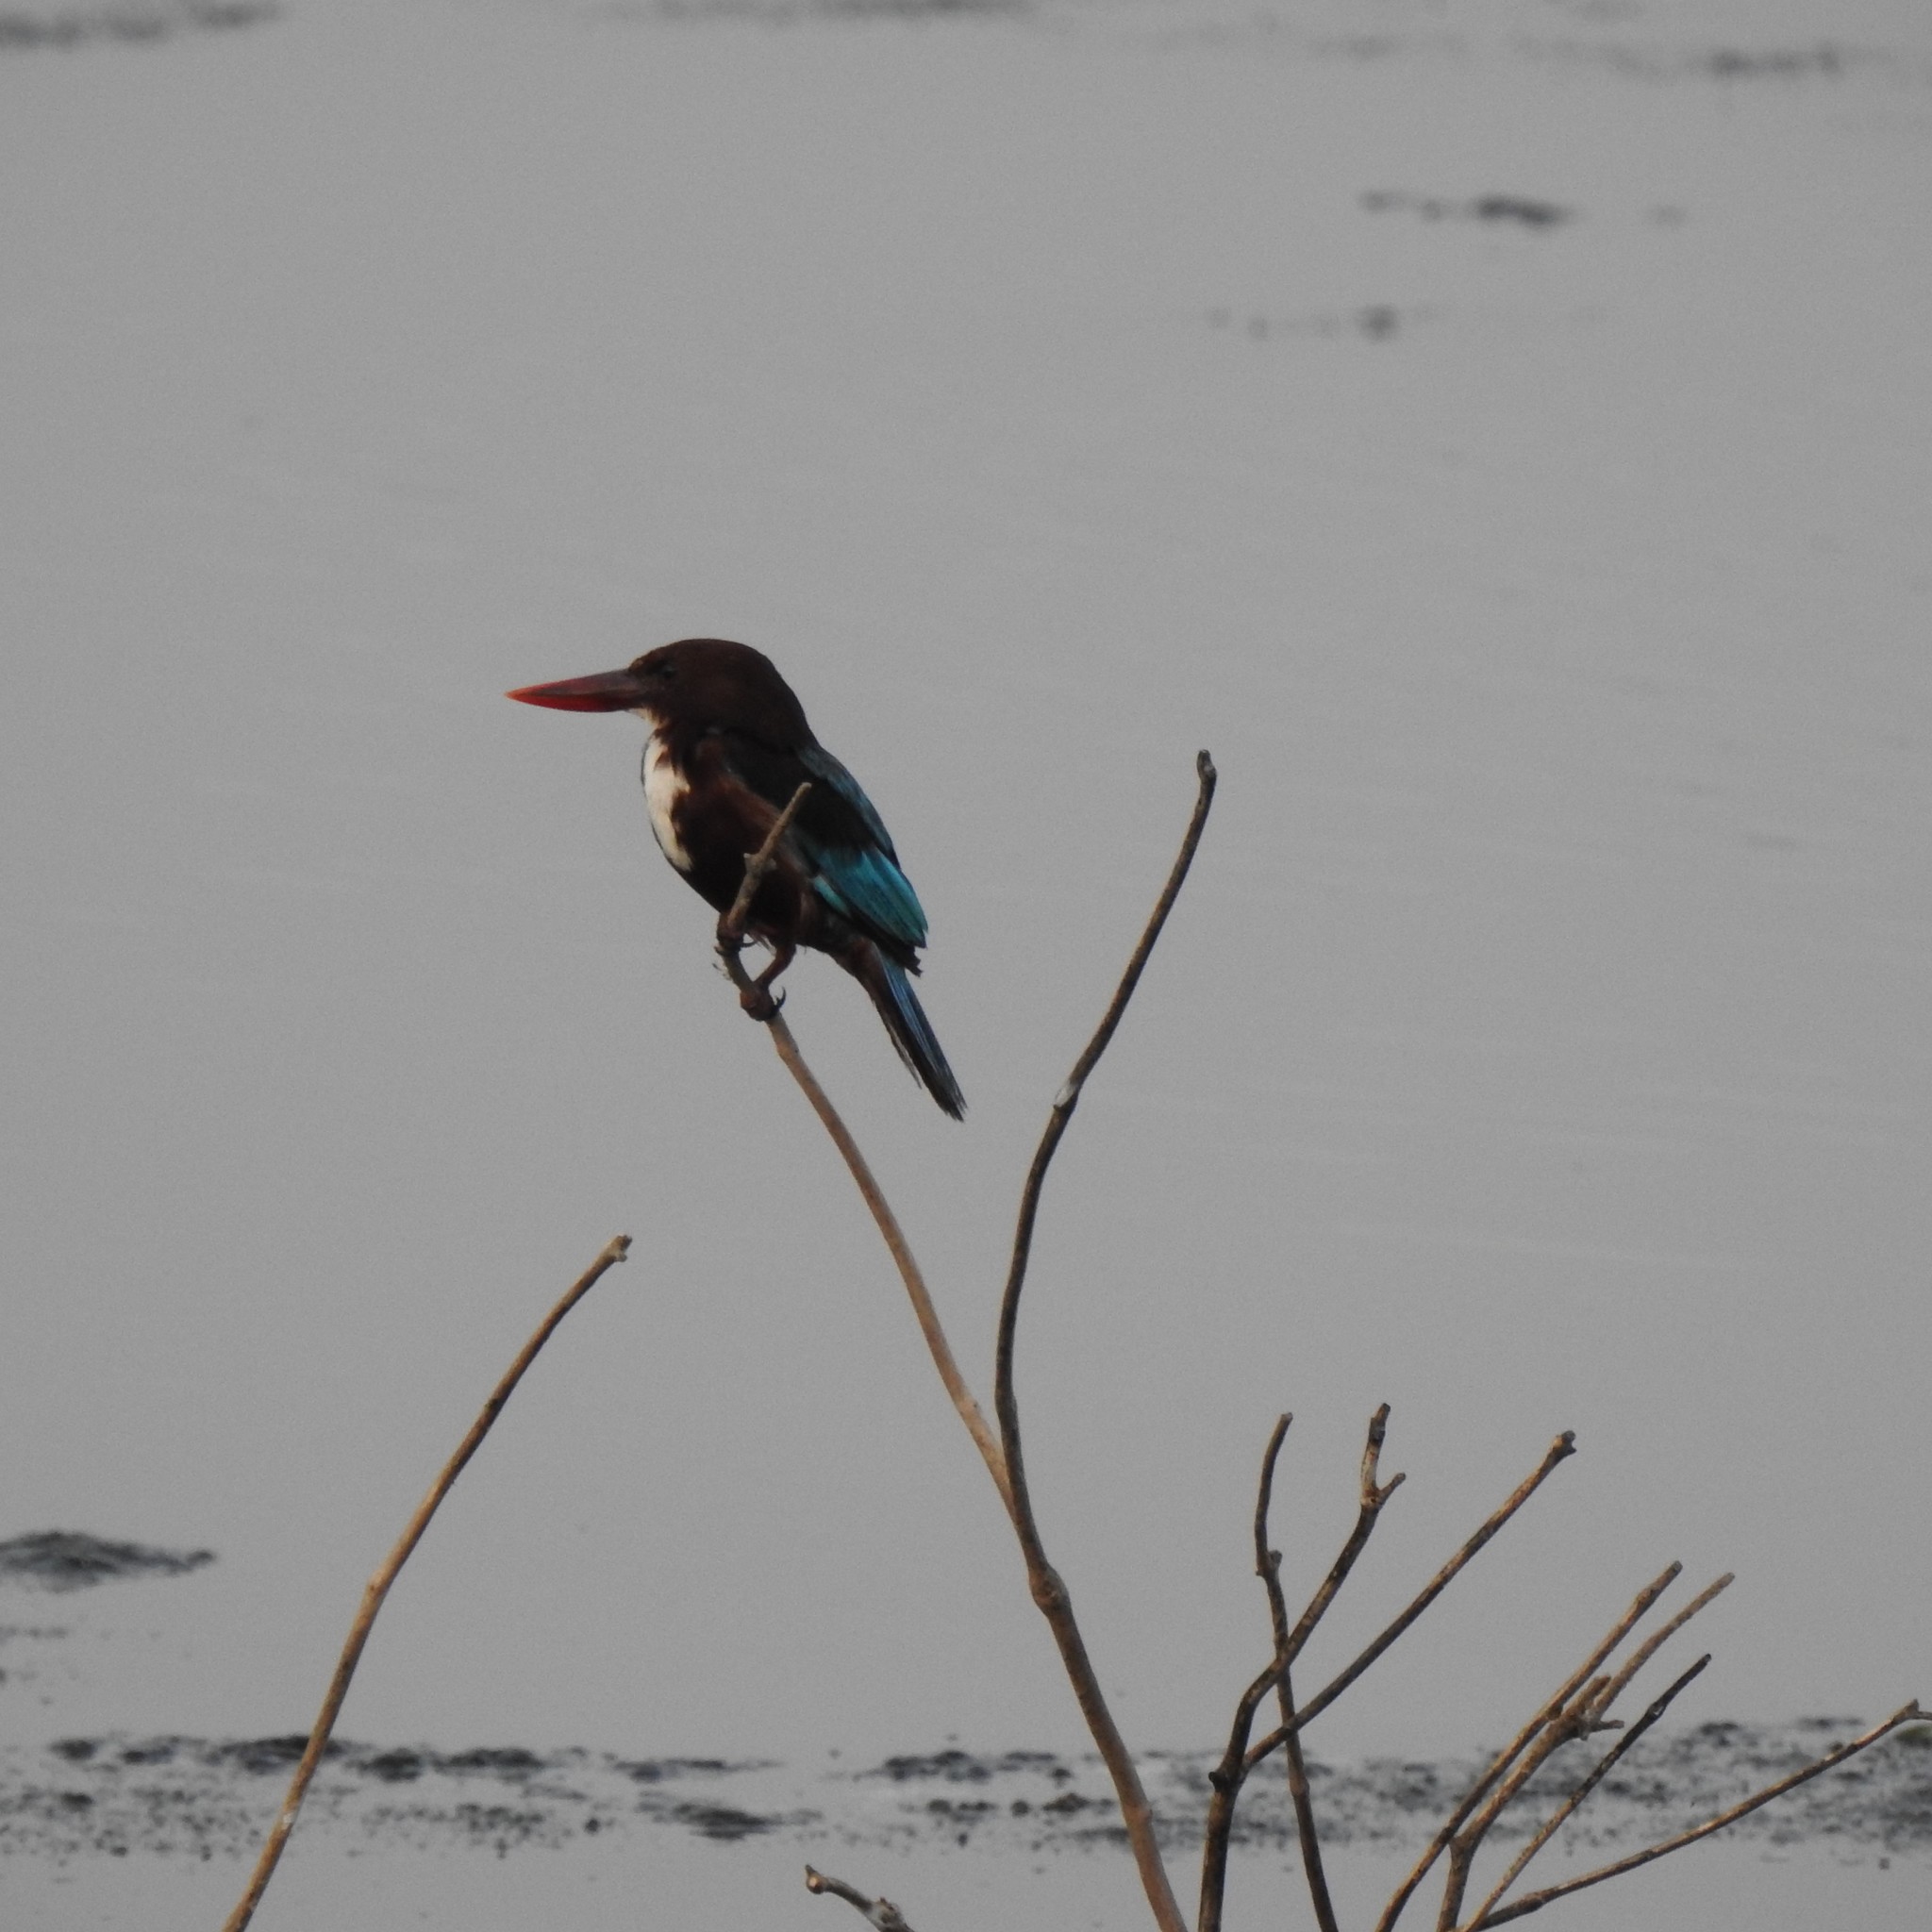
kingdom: Animalia
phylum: Chordata
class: Aves
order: Coraciiformes
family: Alcedinidae
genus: Halcyon
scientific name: Halcyon smyrnensis
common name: White-throated kingfisher
